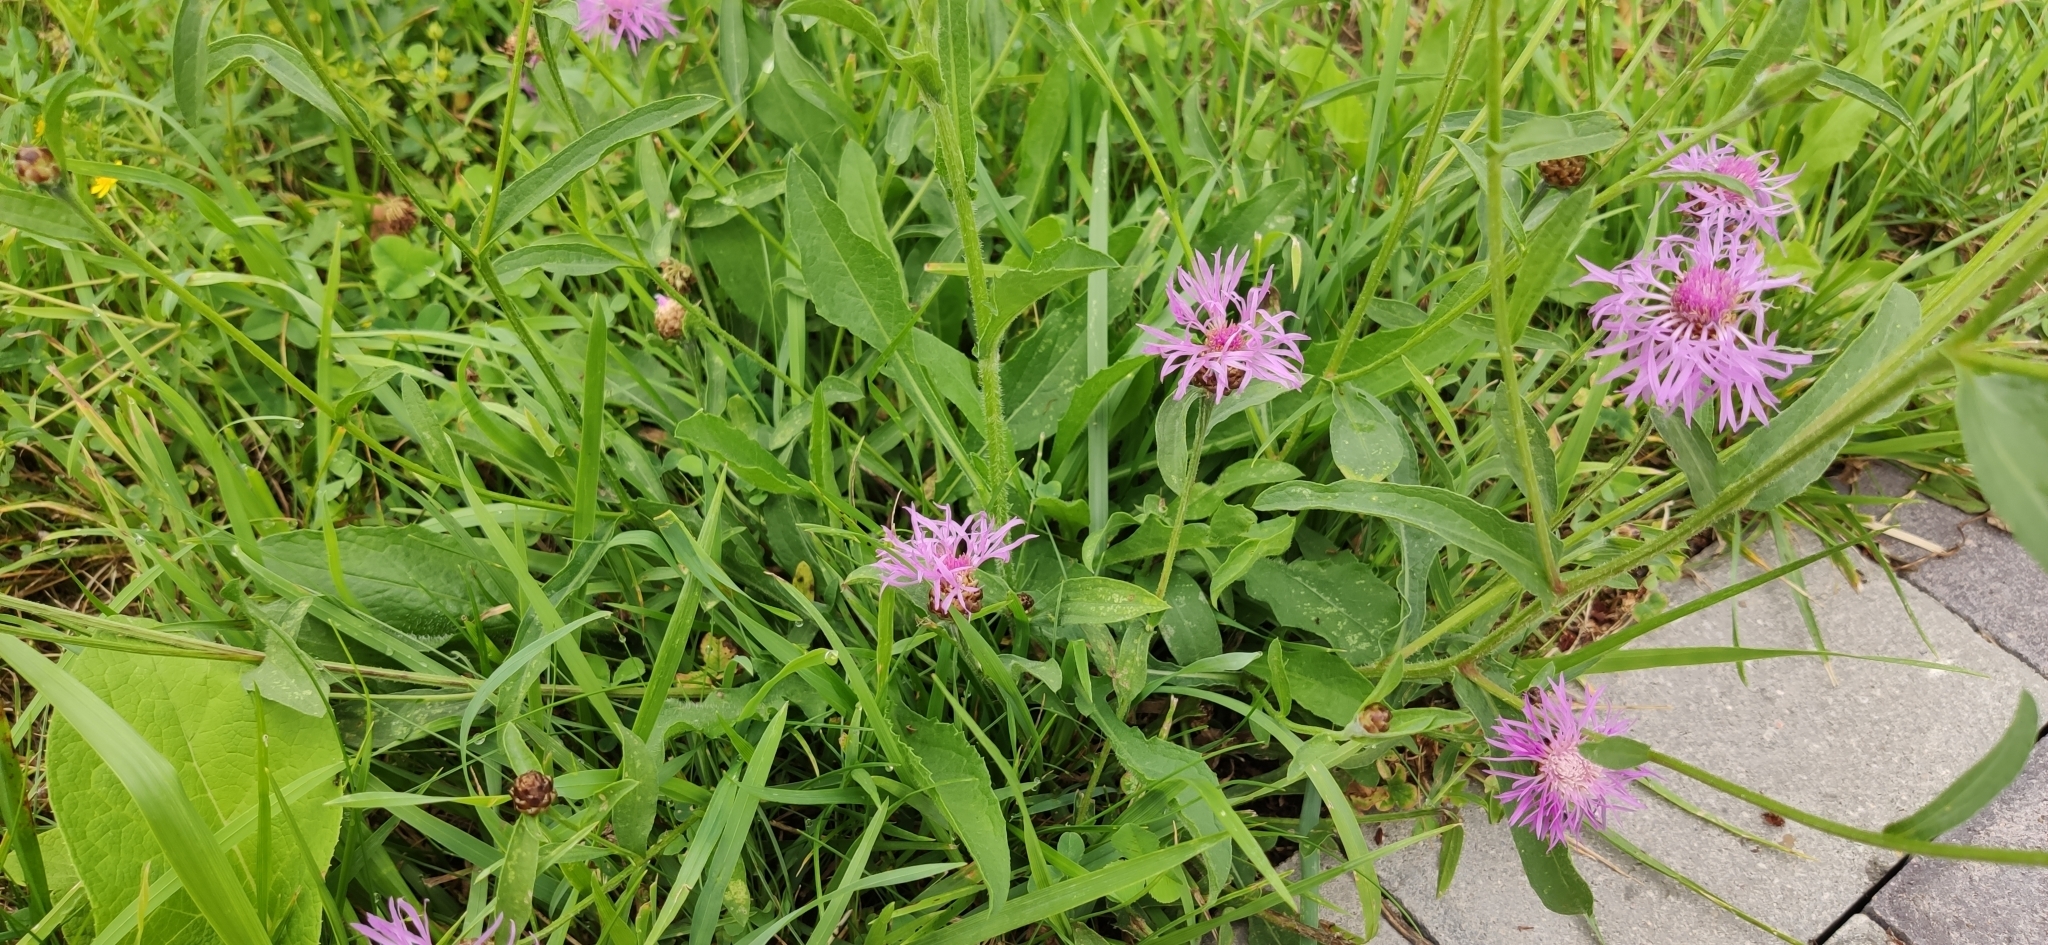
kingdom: Plantae
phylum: Tracheophyta
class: Magnoliopsida
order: Asterales
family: Asteraceae
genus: Centaurea
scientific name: Centaurea jacea
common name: Brown knapweed
